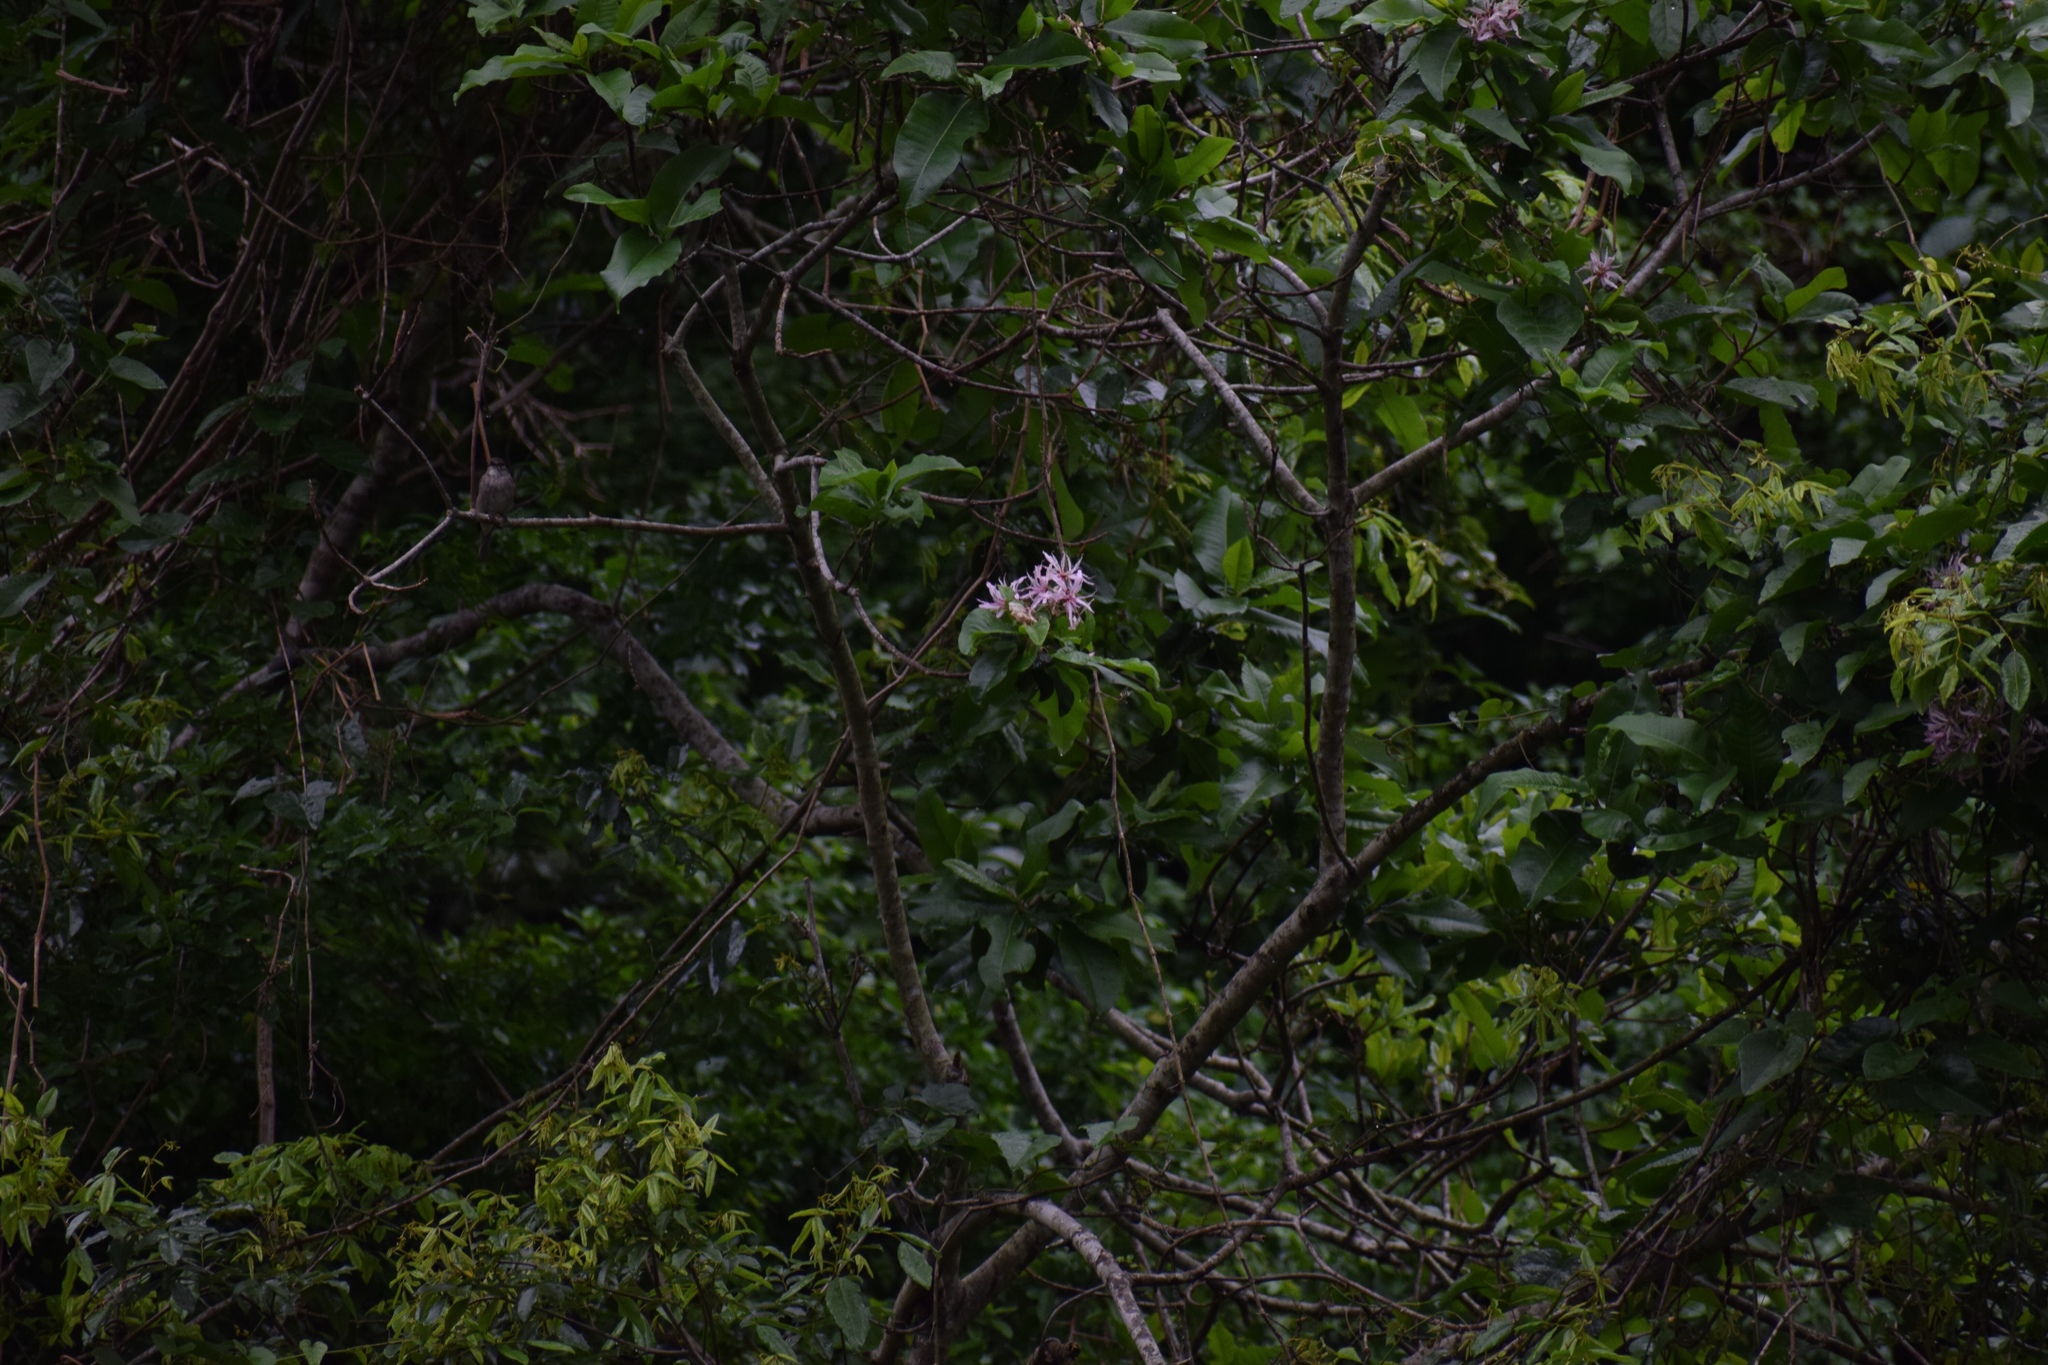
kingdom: Plantae
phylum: Tracheophyta
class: Magnoliopsida
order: Sapindales
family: Rutaceae
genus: Calodendrum
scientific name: Calodendrum capense
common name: Cape chestnut
